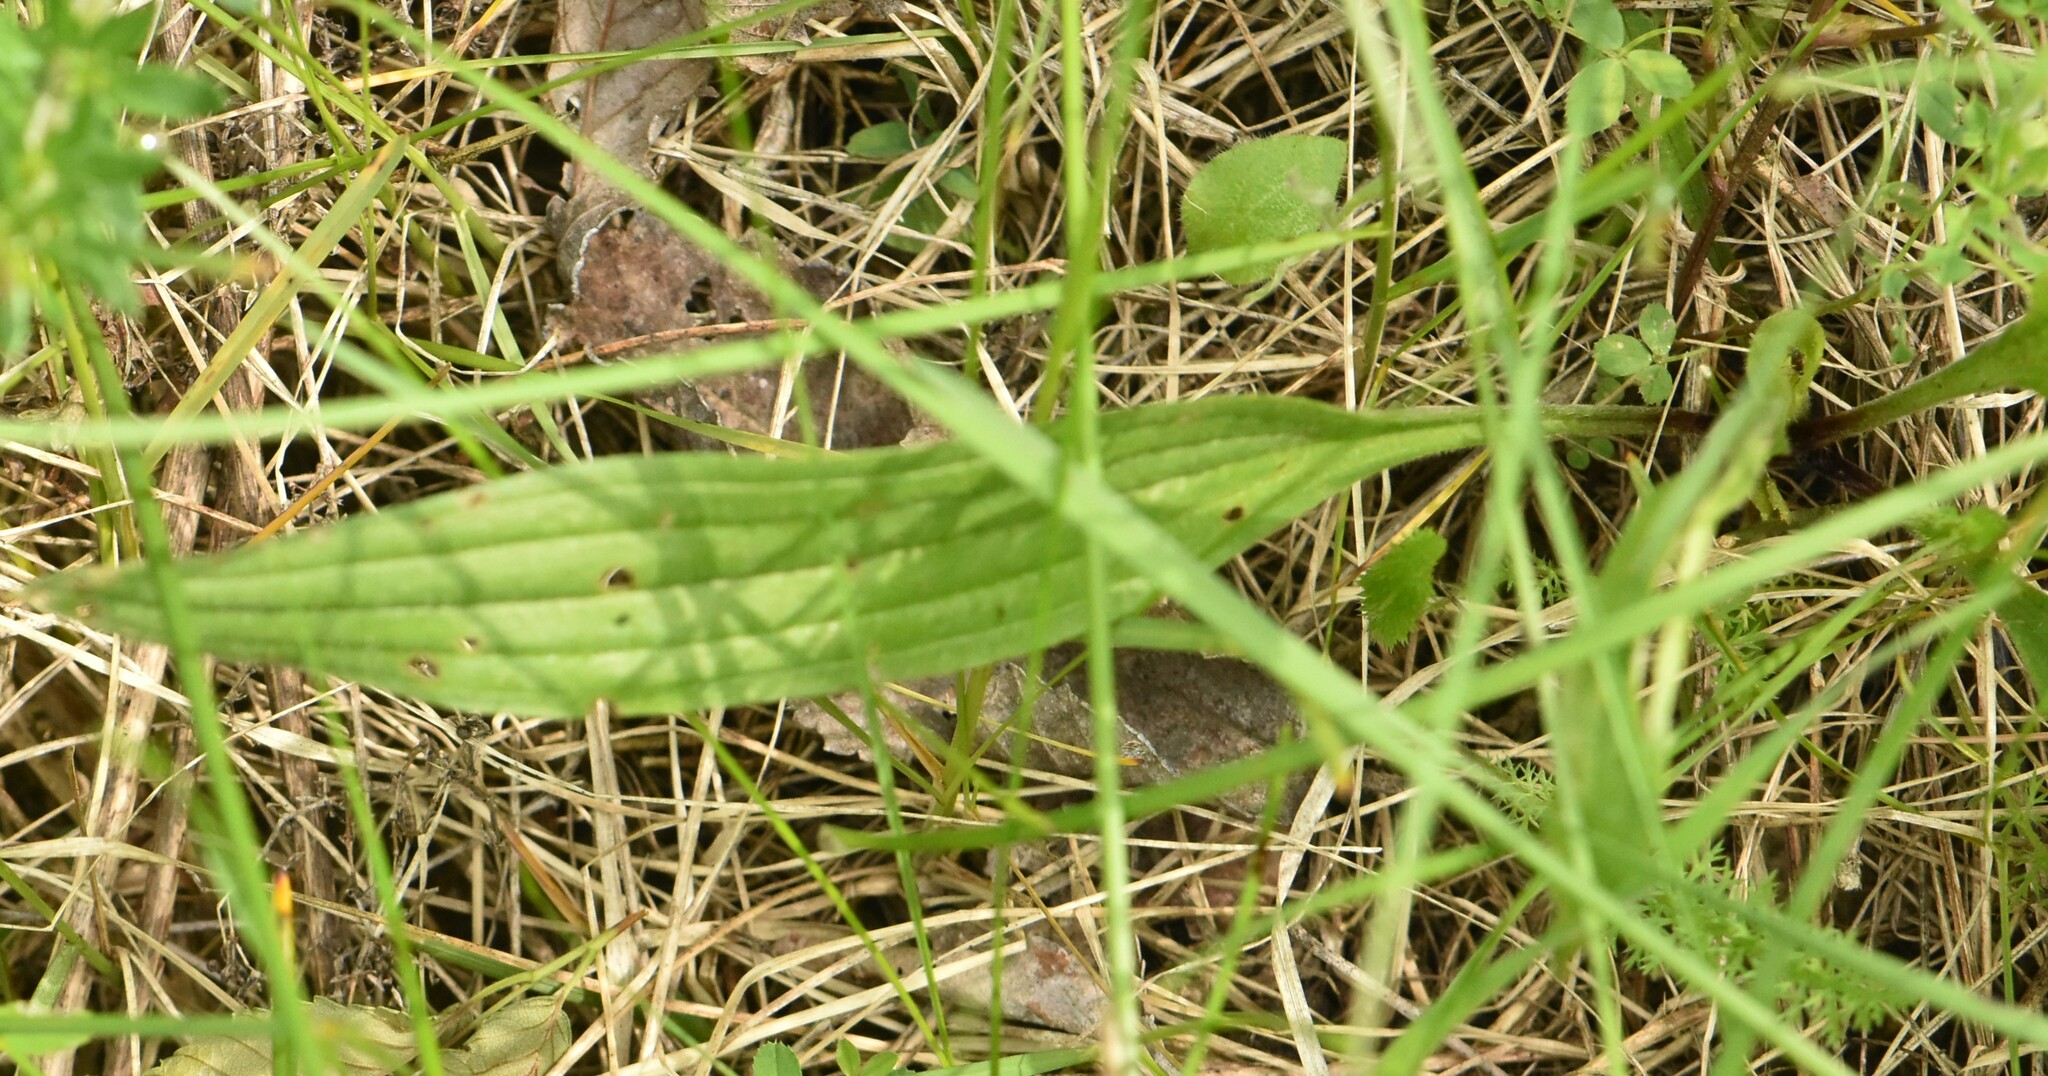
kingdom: Plantae
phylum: Tracheophyta
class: Magnoliopsida
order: Lamiales
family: Plantaginaceae
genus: Plantago
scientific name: Plantago lanceolata
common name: Ribwort plantain
